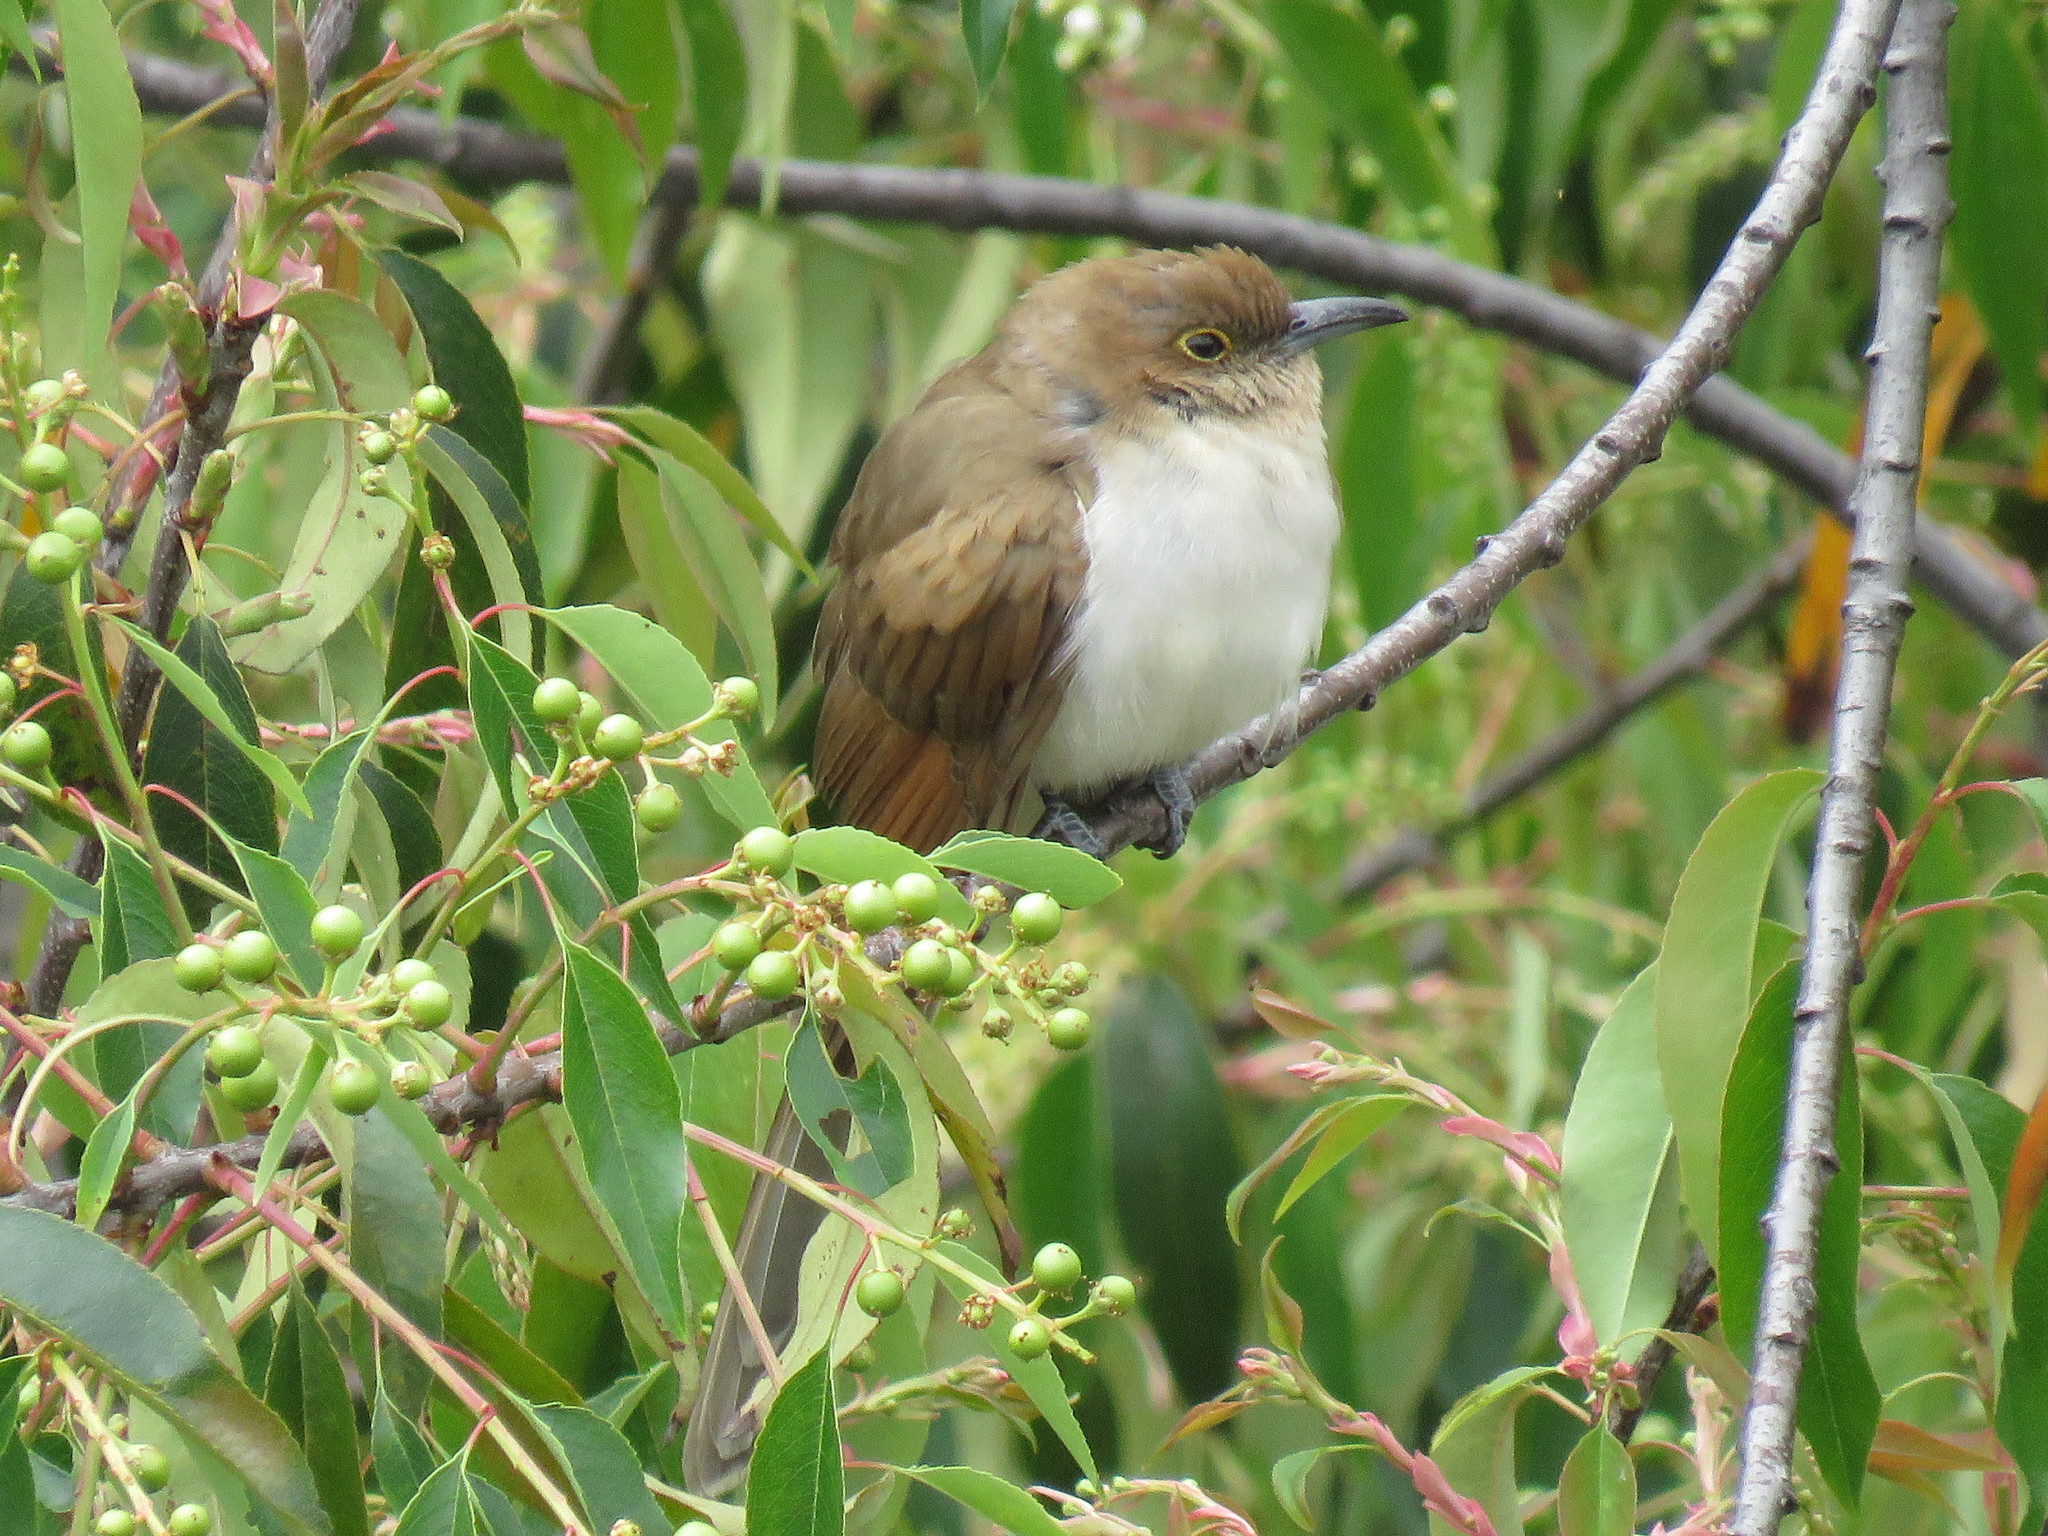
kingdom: Animalia
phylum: Chordata
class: Aves
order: Cuculiformes
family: Cuculidae
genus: Coccyzus
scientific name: Coccyzus erythropthalmus
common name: Black-billed cuckoo
